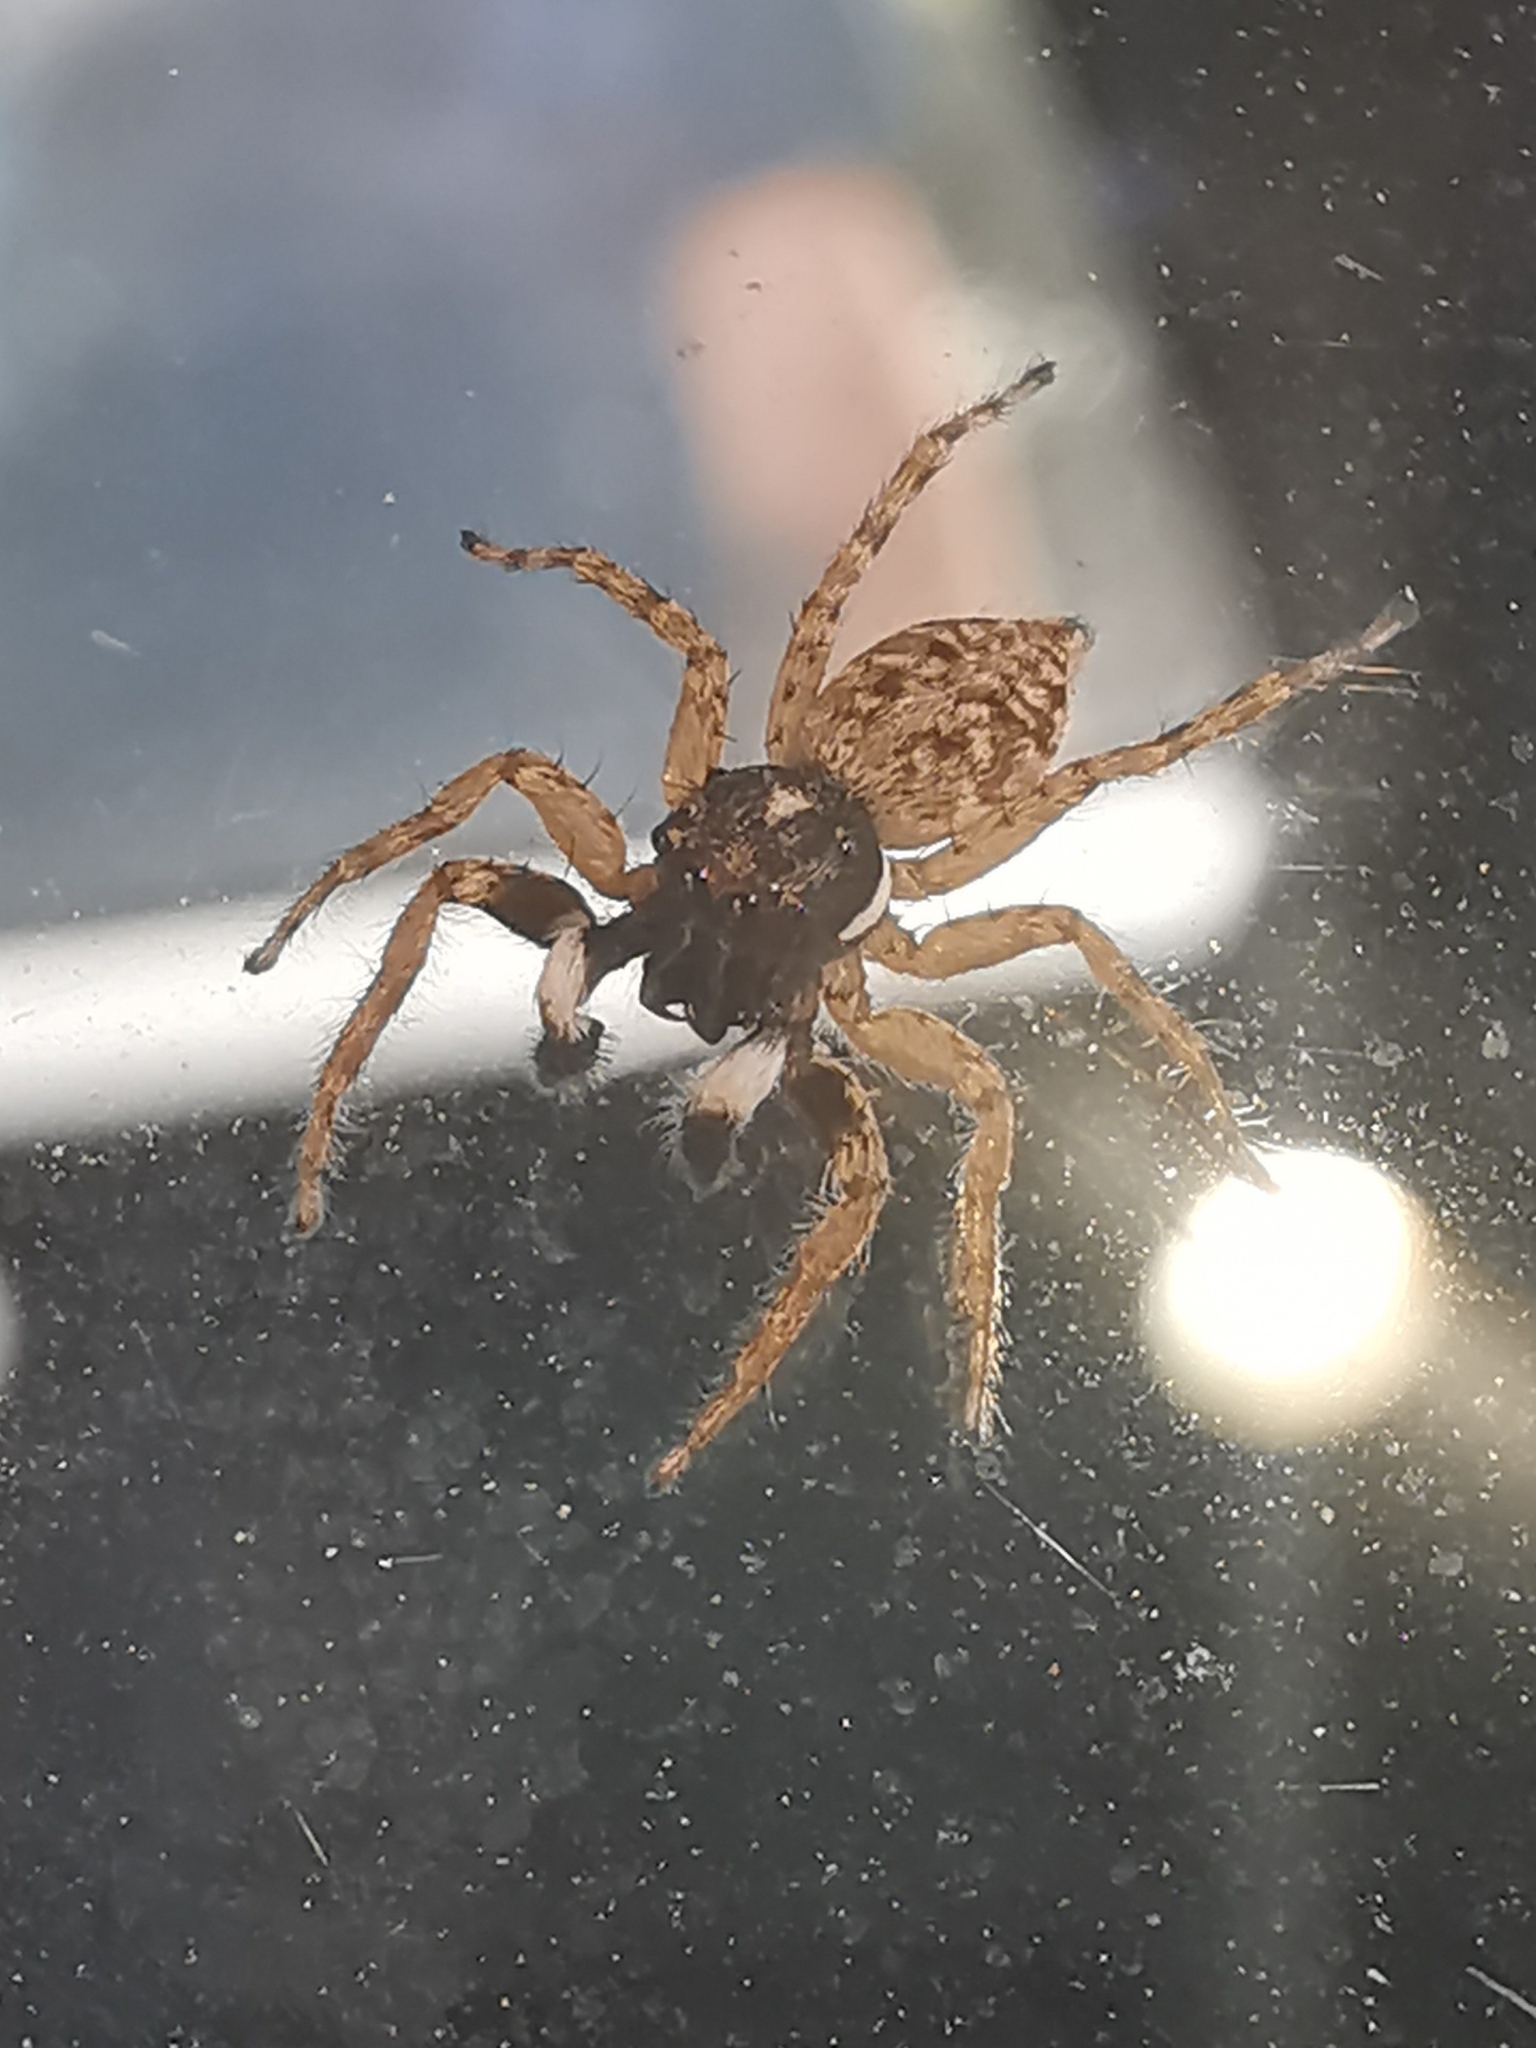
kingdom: Animalia
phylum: Arthropoda
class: Arachnida
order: Araneae
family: Salticidae
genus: Menemerus
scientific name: Menemerus semilimbatus
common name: Jumping spider
